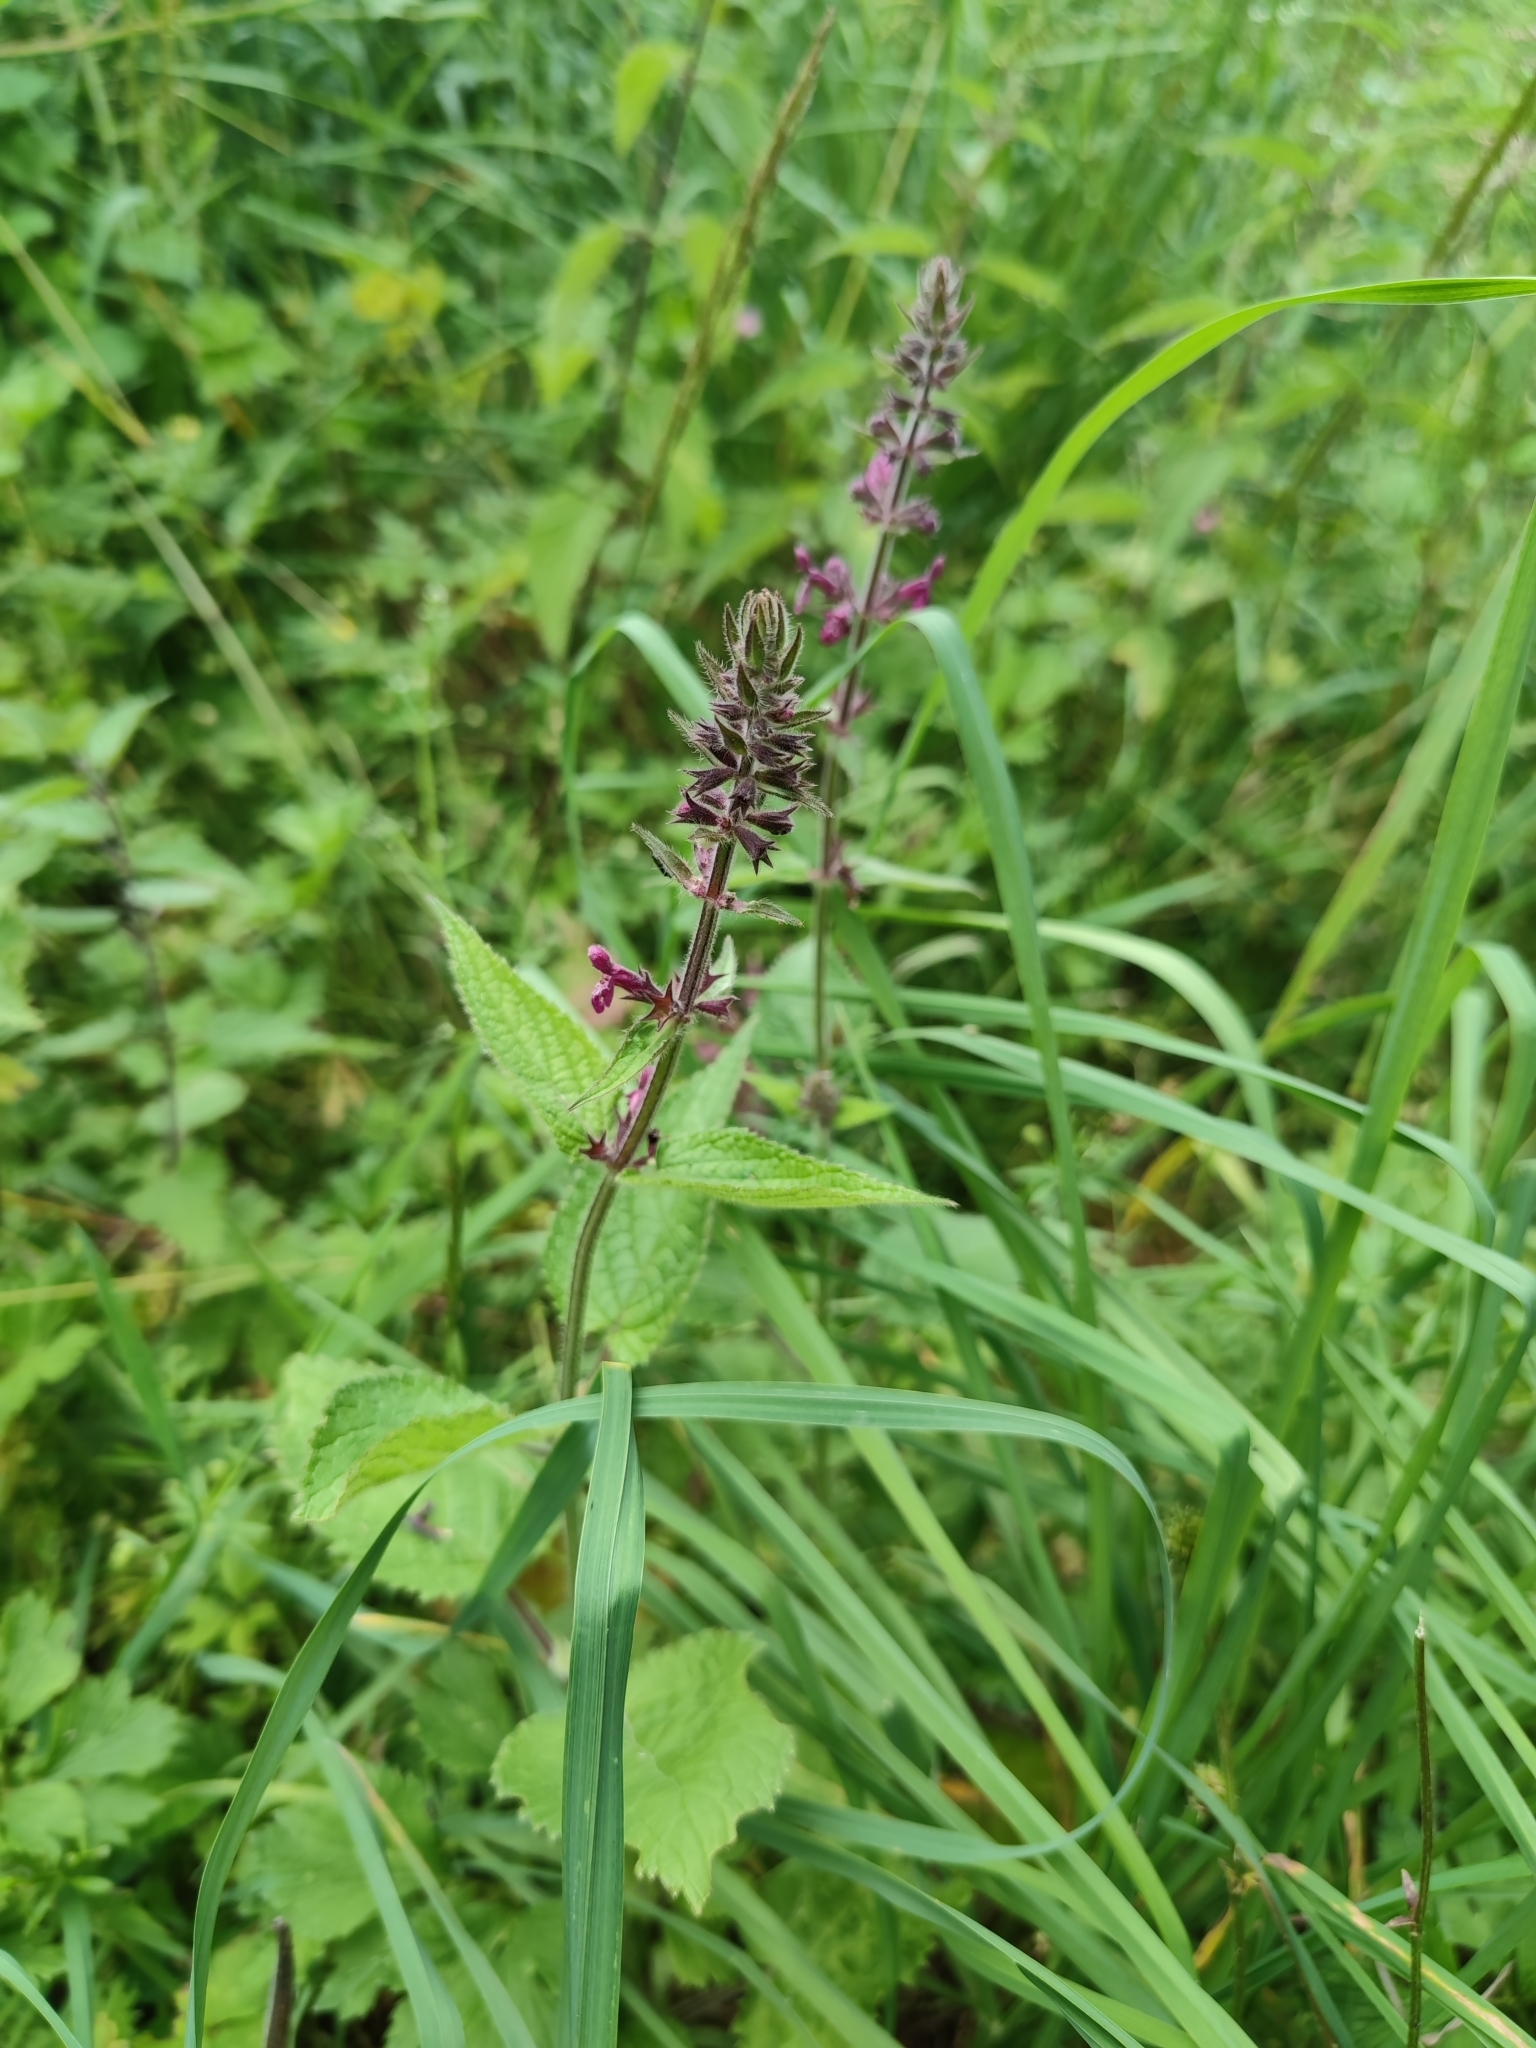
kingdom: Plantae
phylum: Tracheophyta
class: Magnoliopsida
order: Lamiales
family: Lamiaceae
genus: Stachys
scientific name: Stachys sylvatica
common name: Hedge woundwort
